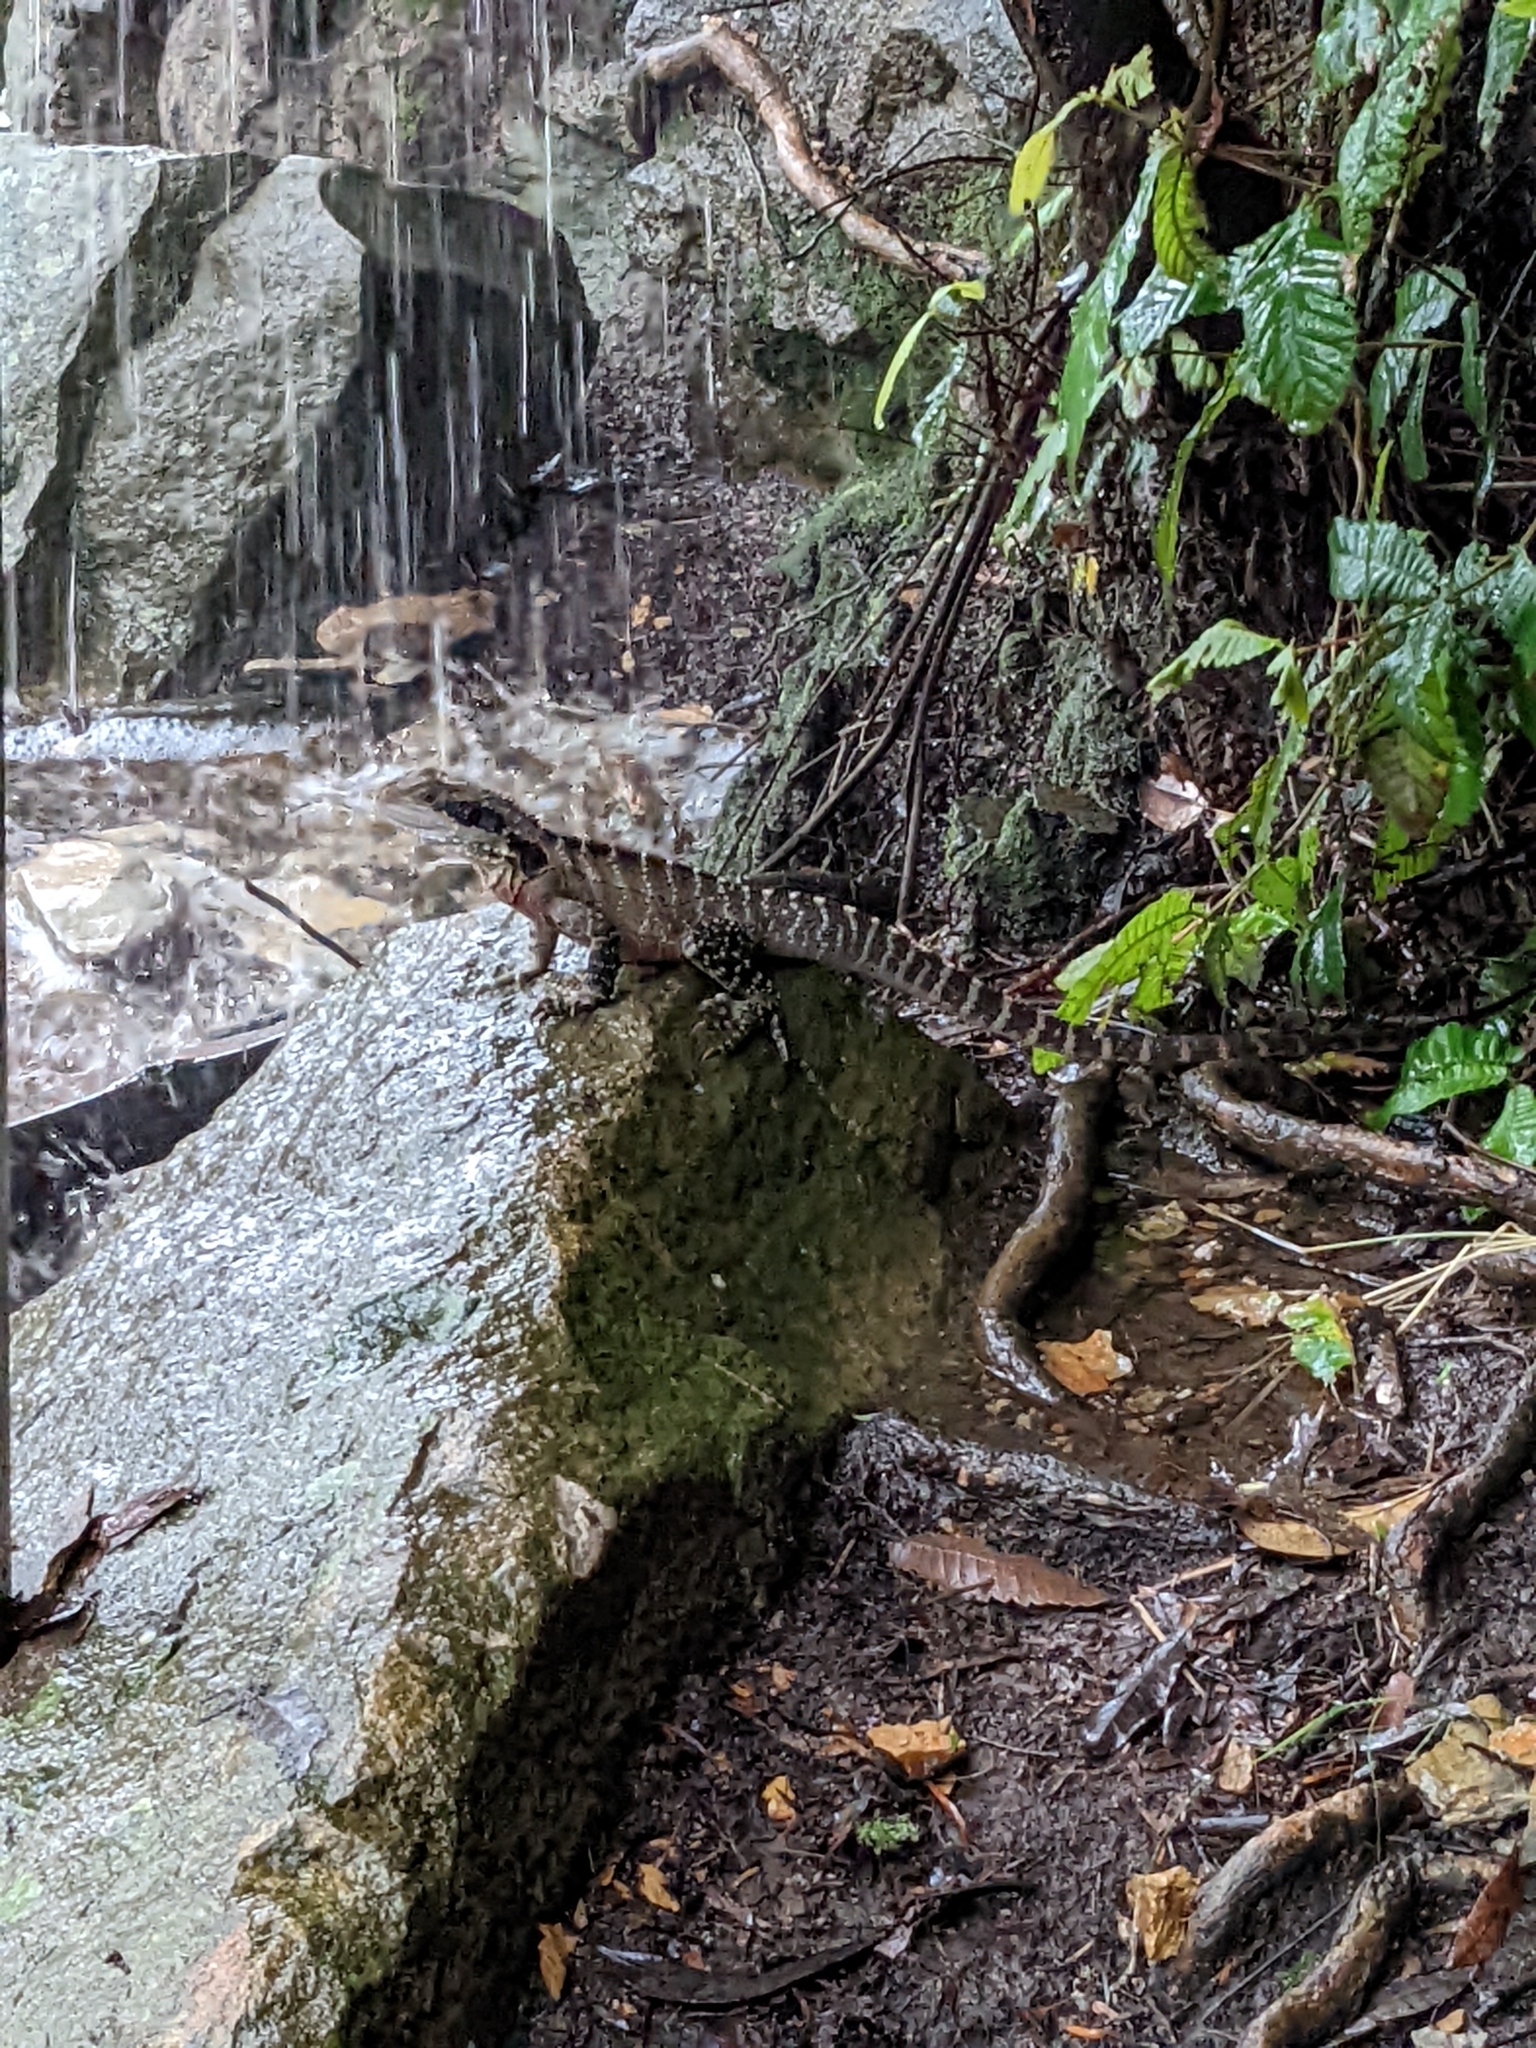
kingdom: Animalia
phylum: Chordata
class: Squamata
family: Agamidae
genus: Intellagama
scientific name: Intellagama lesueurii
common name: Eastern water dragon
